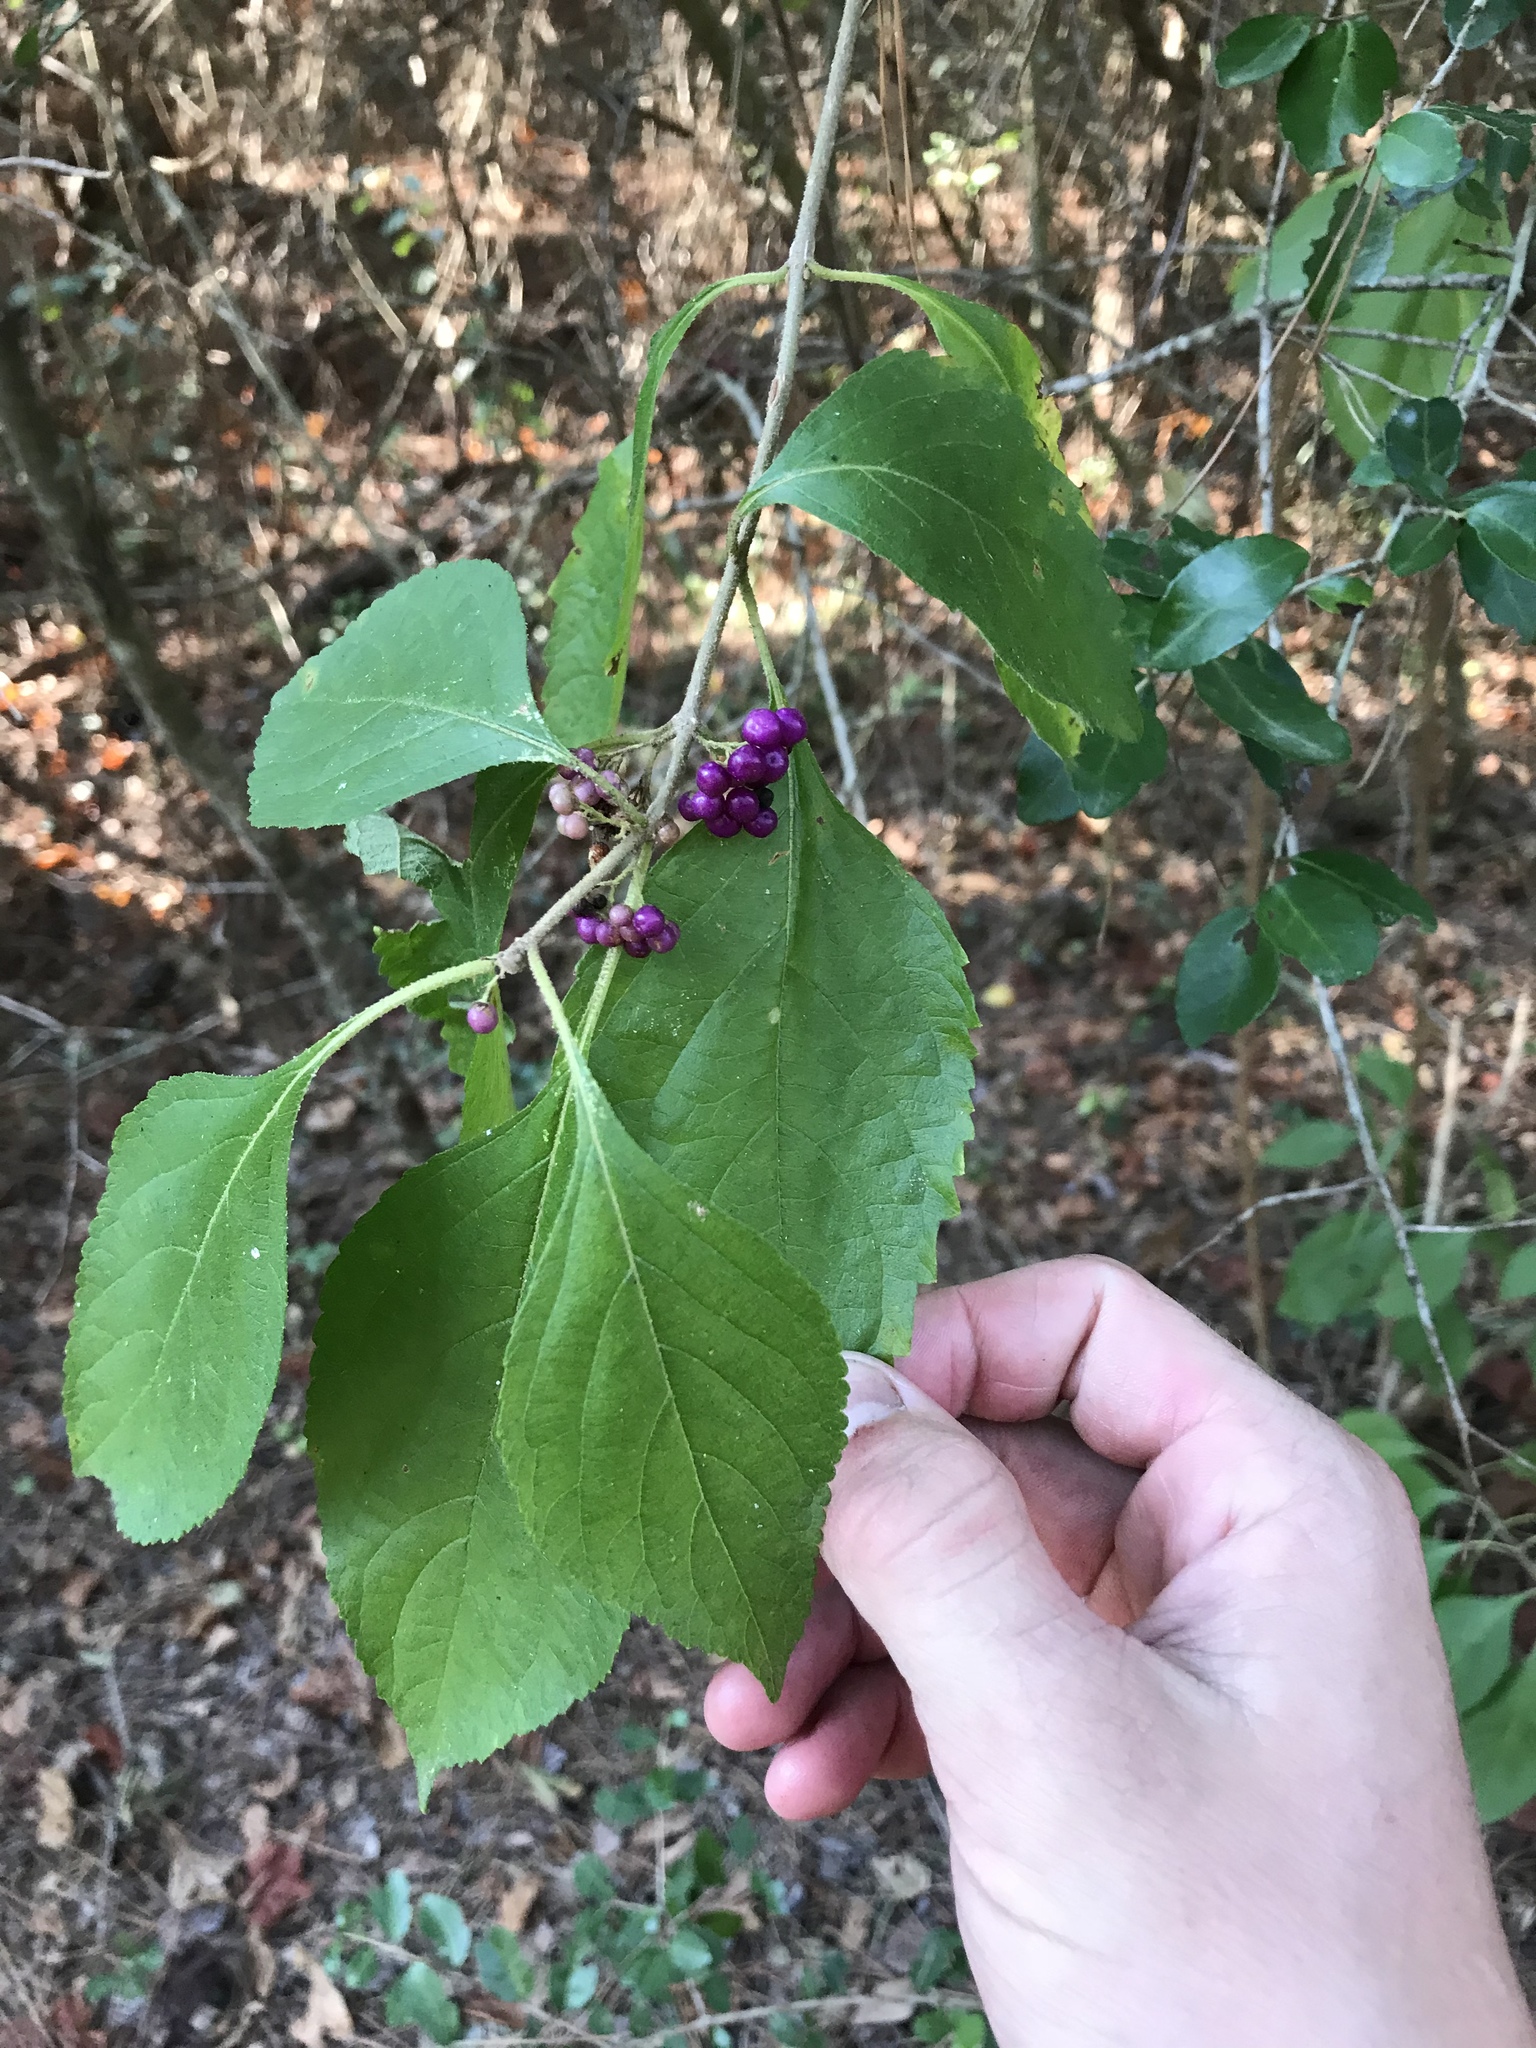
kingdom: Plantae
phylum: Tracheophyta
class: Magnoliopsida
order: Lamiales
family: Lamiaceae
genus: Callicarpa
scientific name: Callicarpa americana
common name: American beautyberry
